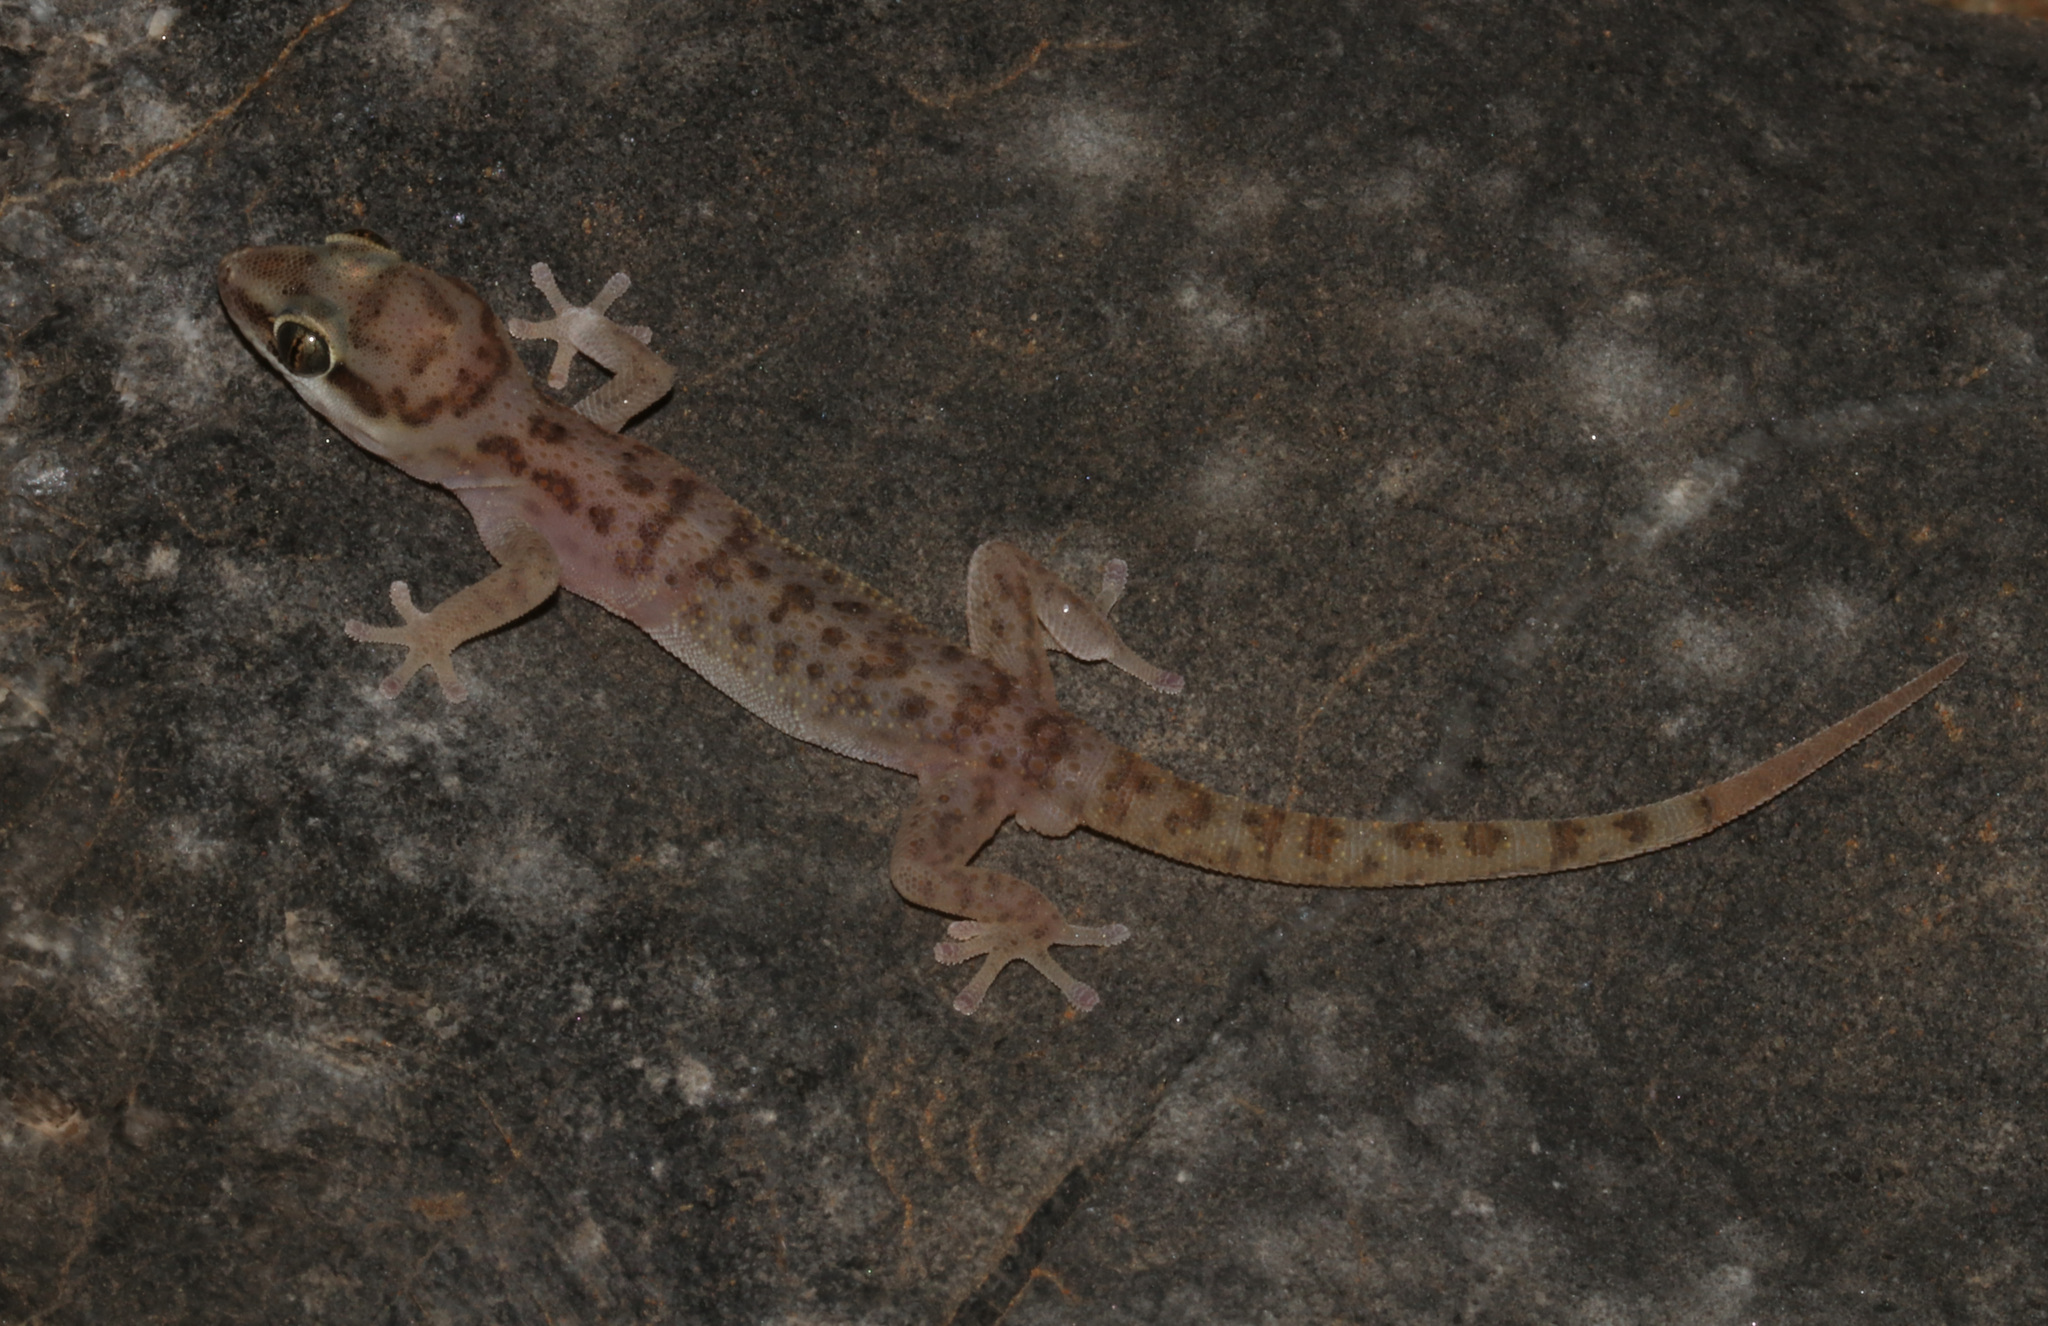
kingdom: Animalia
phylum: Chordata
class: Squamata
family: Gekkonidae
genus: Pachydactylus
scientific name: Pachydactylus etultra
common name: Sossus gecko
